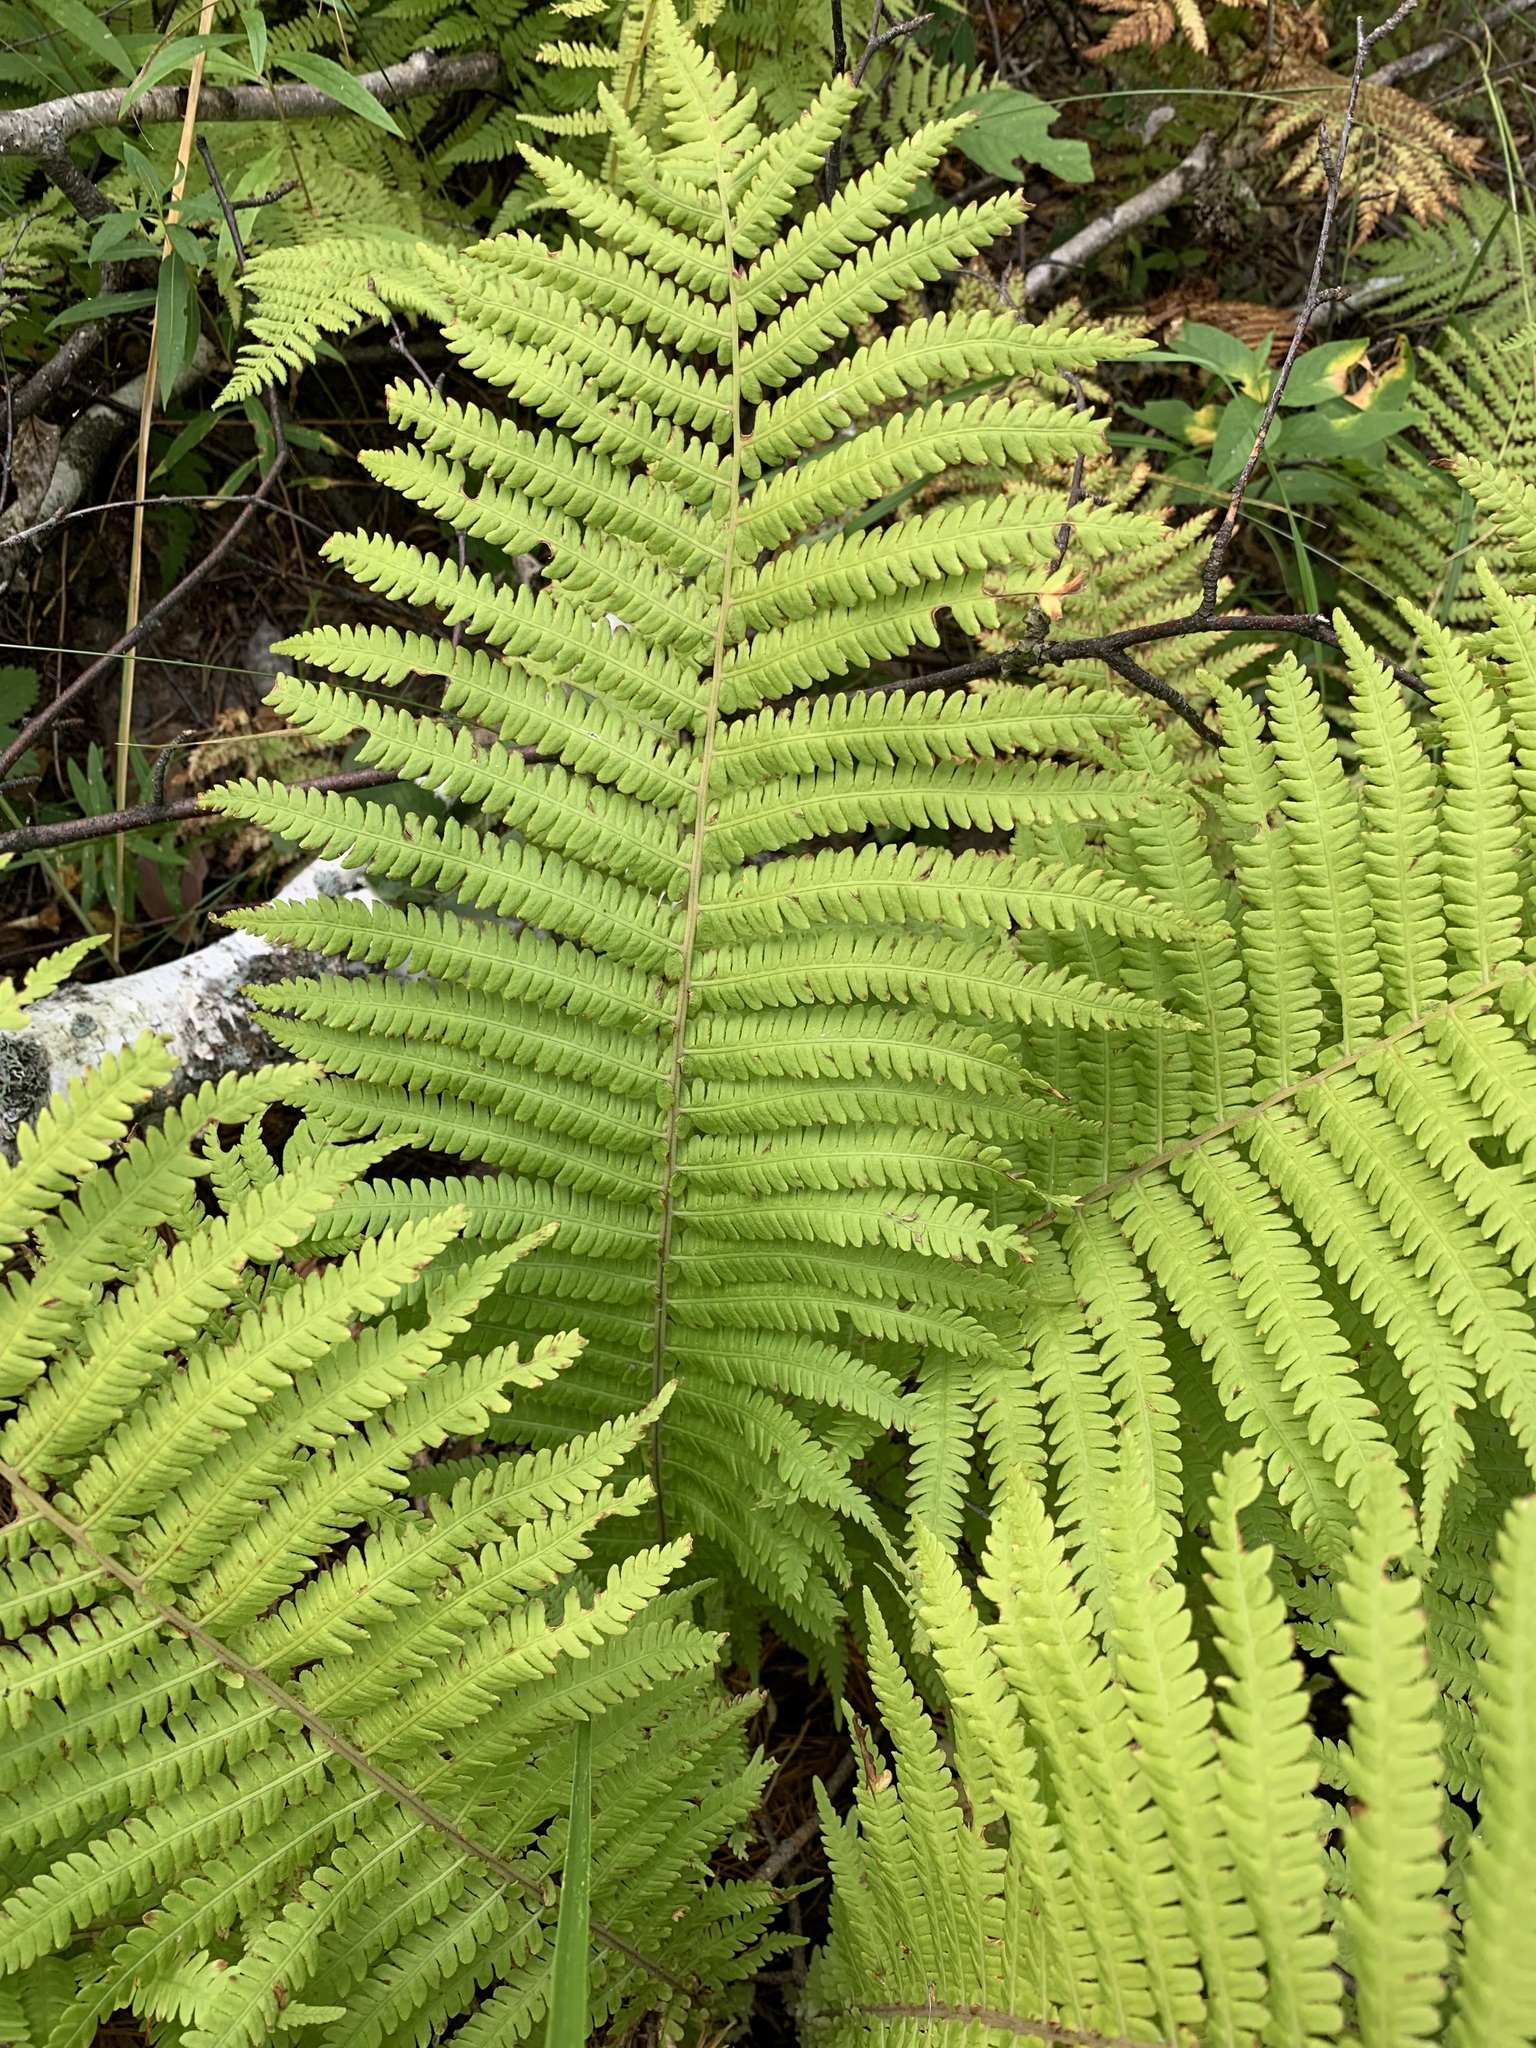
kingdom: Plantae
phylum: Tracheophyta
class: Polypodiopsida
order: Polypodiales
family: Onocleaceae
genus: Matteuccia
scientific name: Matteuccia struthiopteris
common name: Ostrich fern
